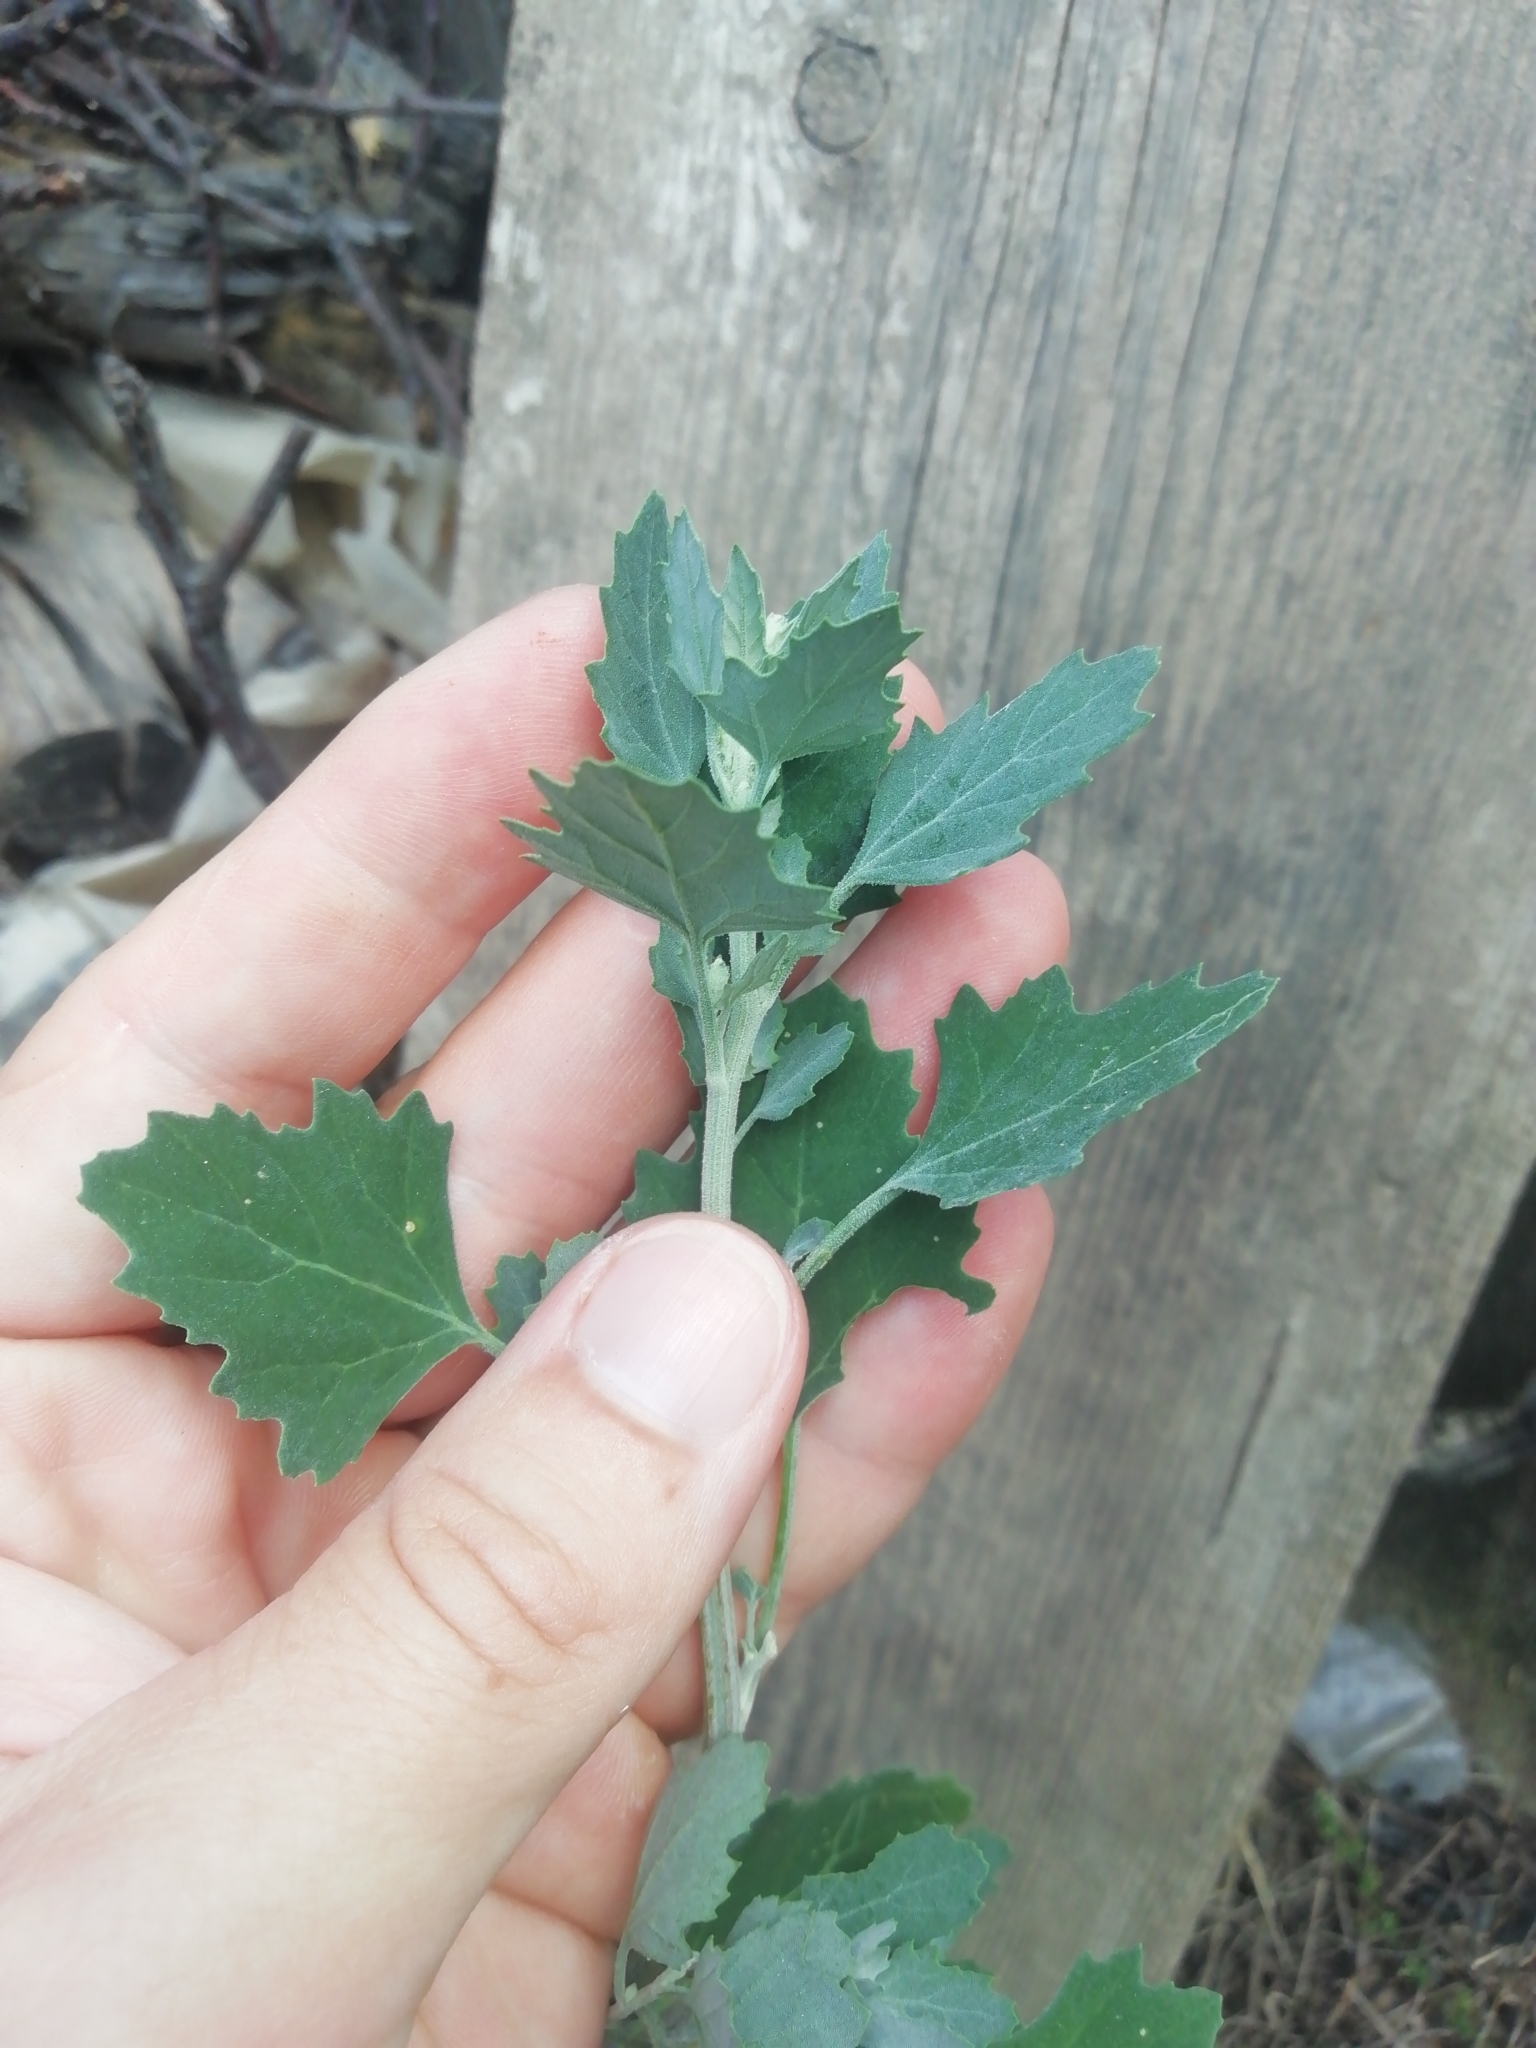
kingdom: Plantae
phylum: Tracheophyta
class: Magnoliopsida
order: Caryophyllales
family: Amaranthaceae
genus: Chenopodium
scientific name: Chenopodium album
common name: Fat-hen
